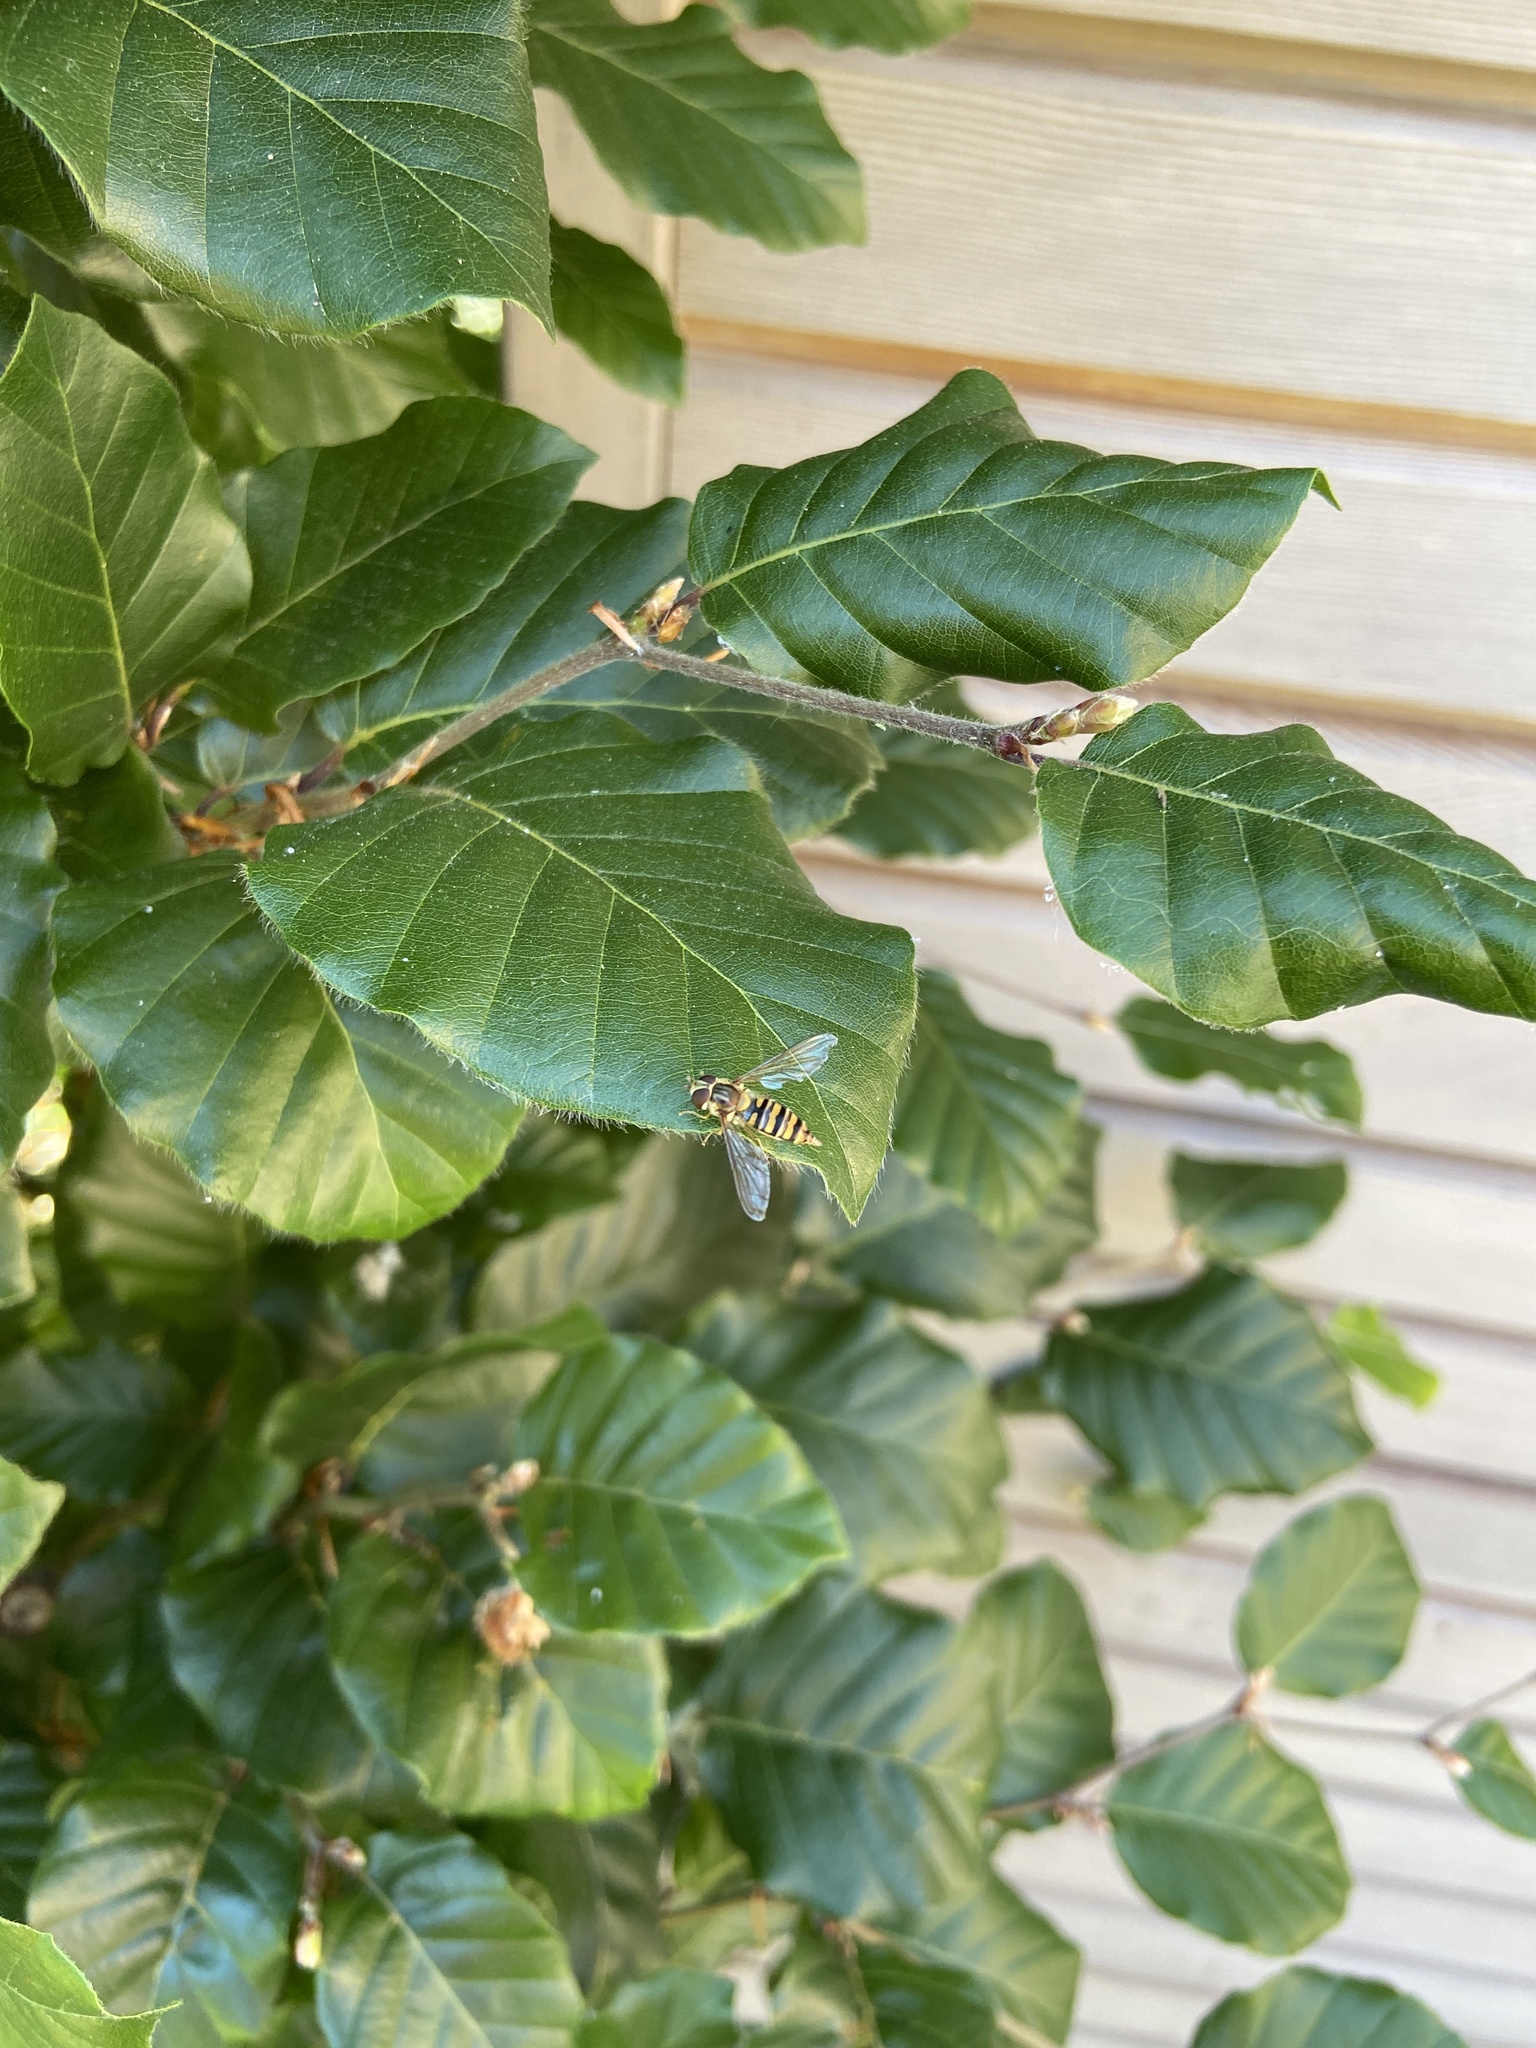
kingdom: Animalia
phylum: Arthropoda
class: Insecta
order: Diptera
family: Syrphidae
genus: Episyrphus
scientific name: Episyrphus balteatus
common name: Marmalade hoverfly
